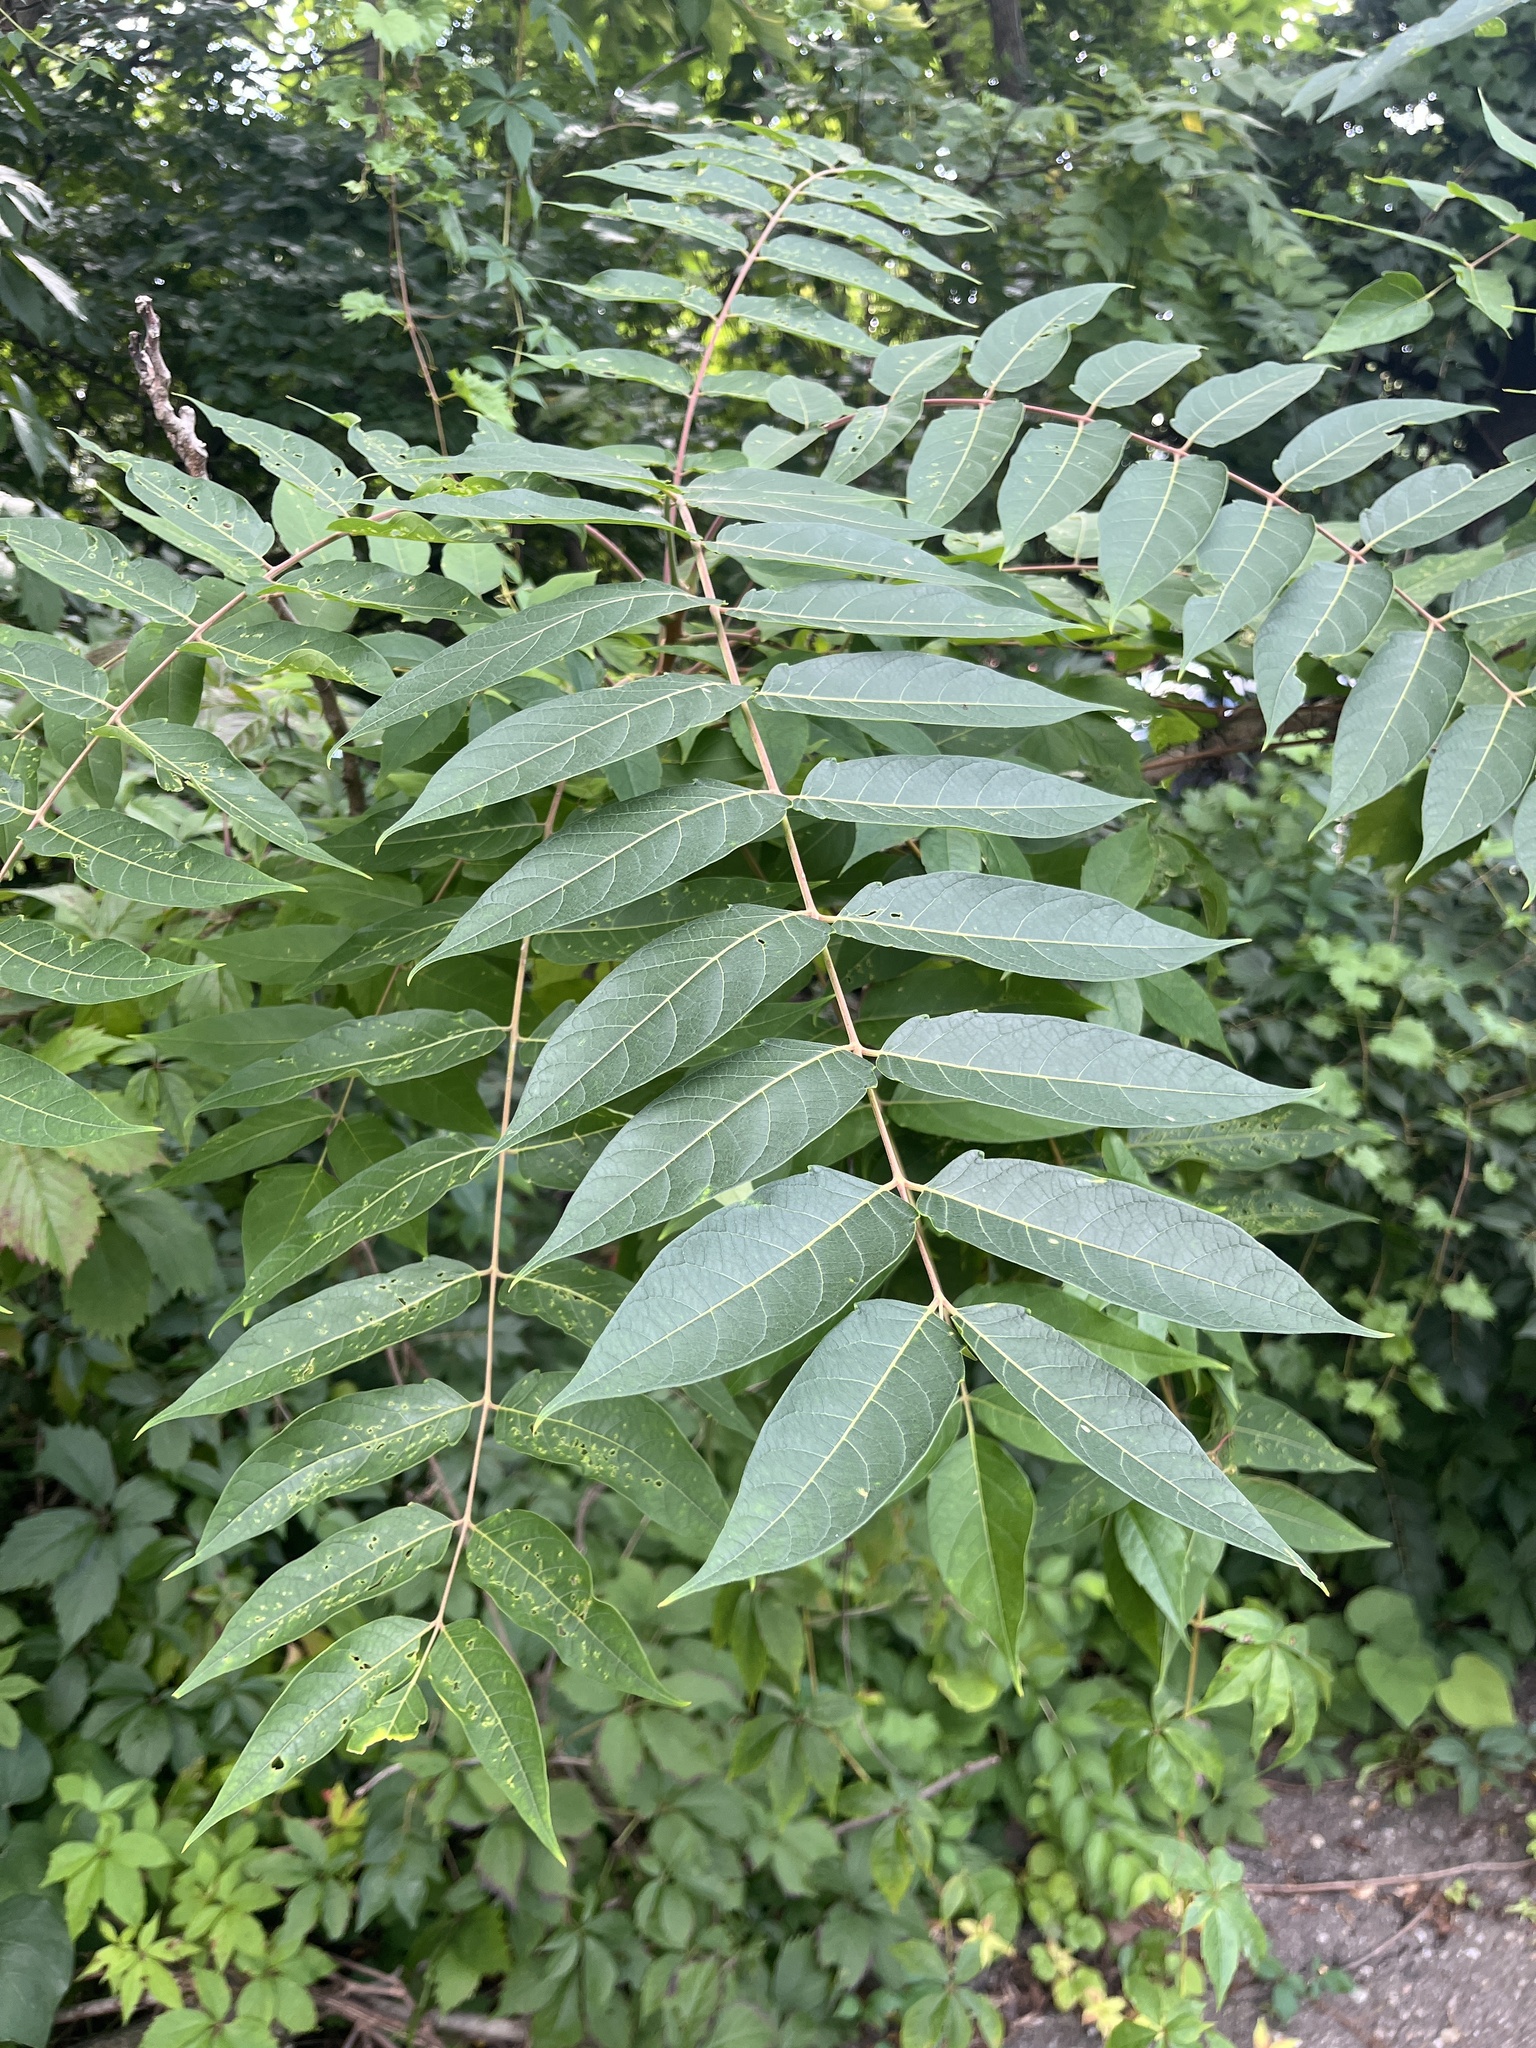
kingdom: Plantae
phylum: Tracheophyta
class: Magnoliopsida
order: Sapindales
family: Simaroubaceae
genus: Ailanthus
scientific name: Ailanthus altissima
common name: Tree-of-heaven
